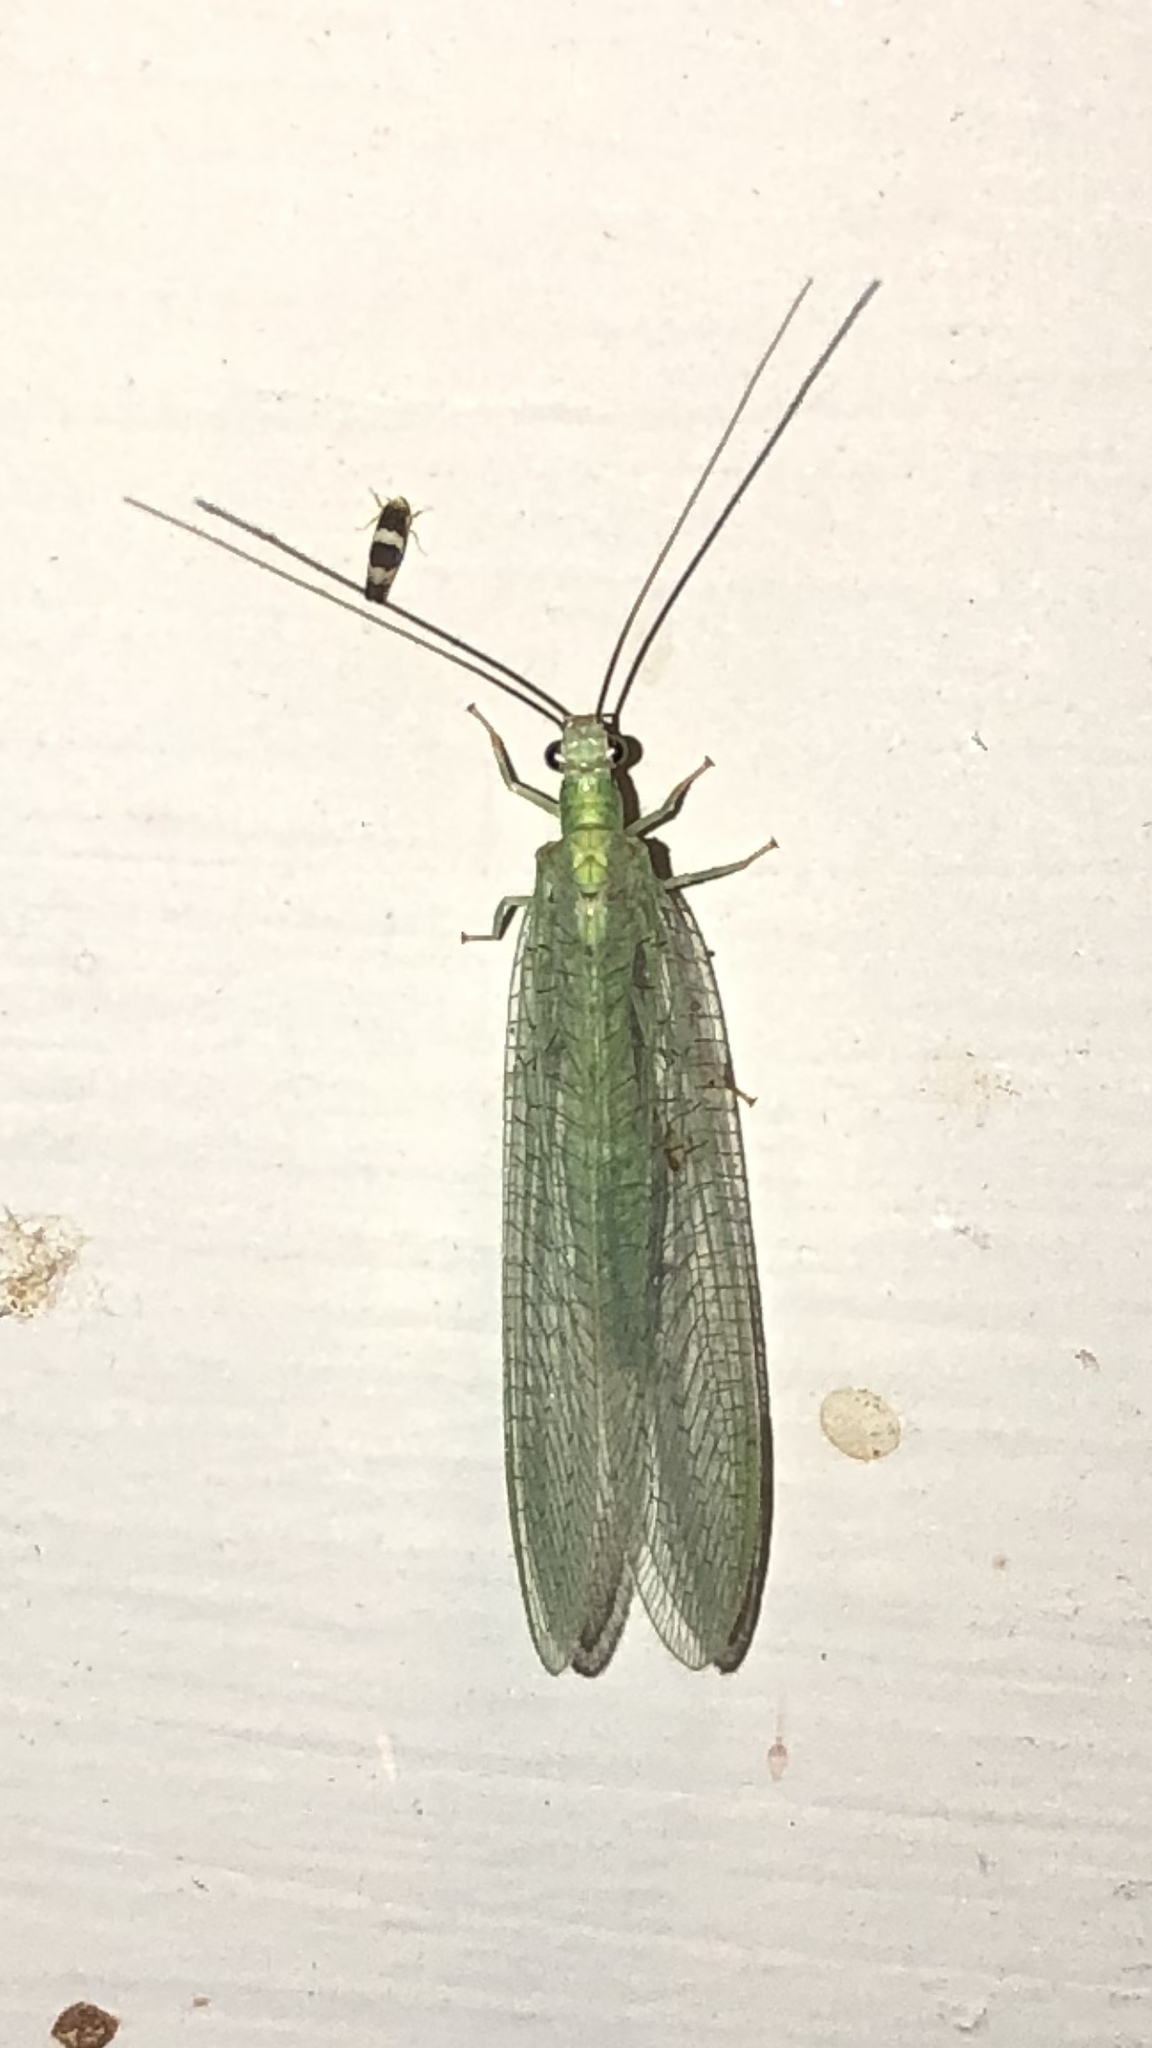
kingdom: Animalia
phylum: Arthropoda
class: Insecta
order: Neuroptera
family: Chrysopidae
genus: Chrysopa
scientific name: Chrysopa nigricornis
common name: Black-horned green lacewing
